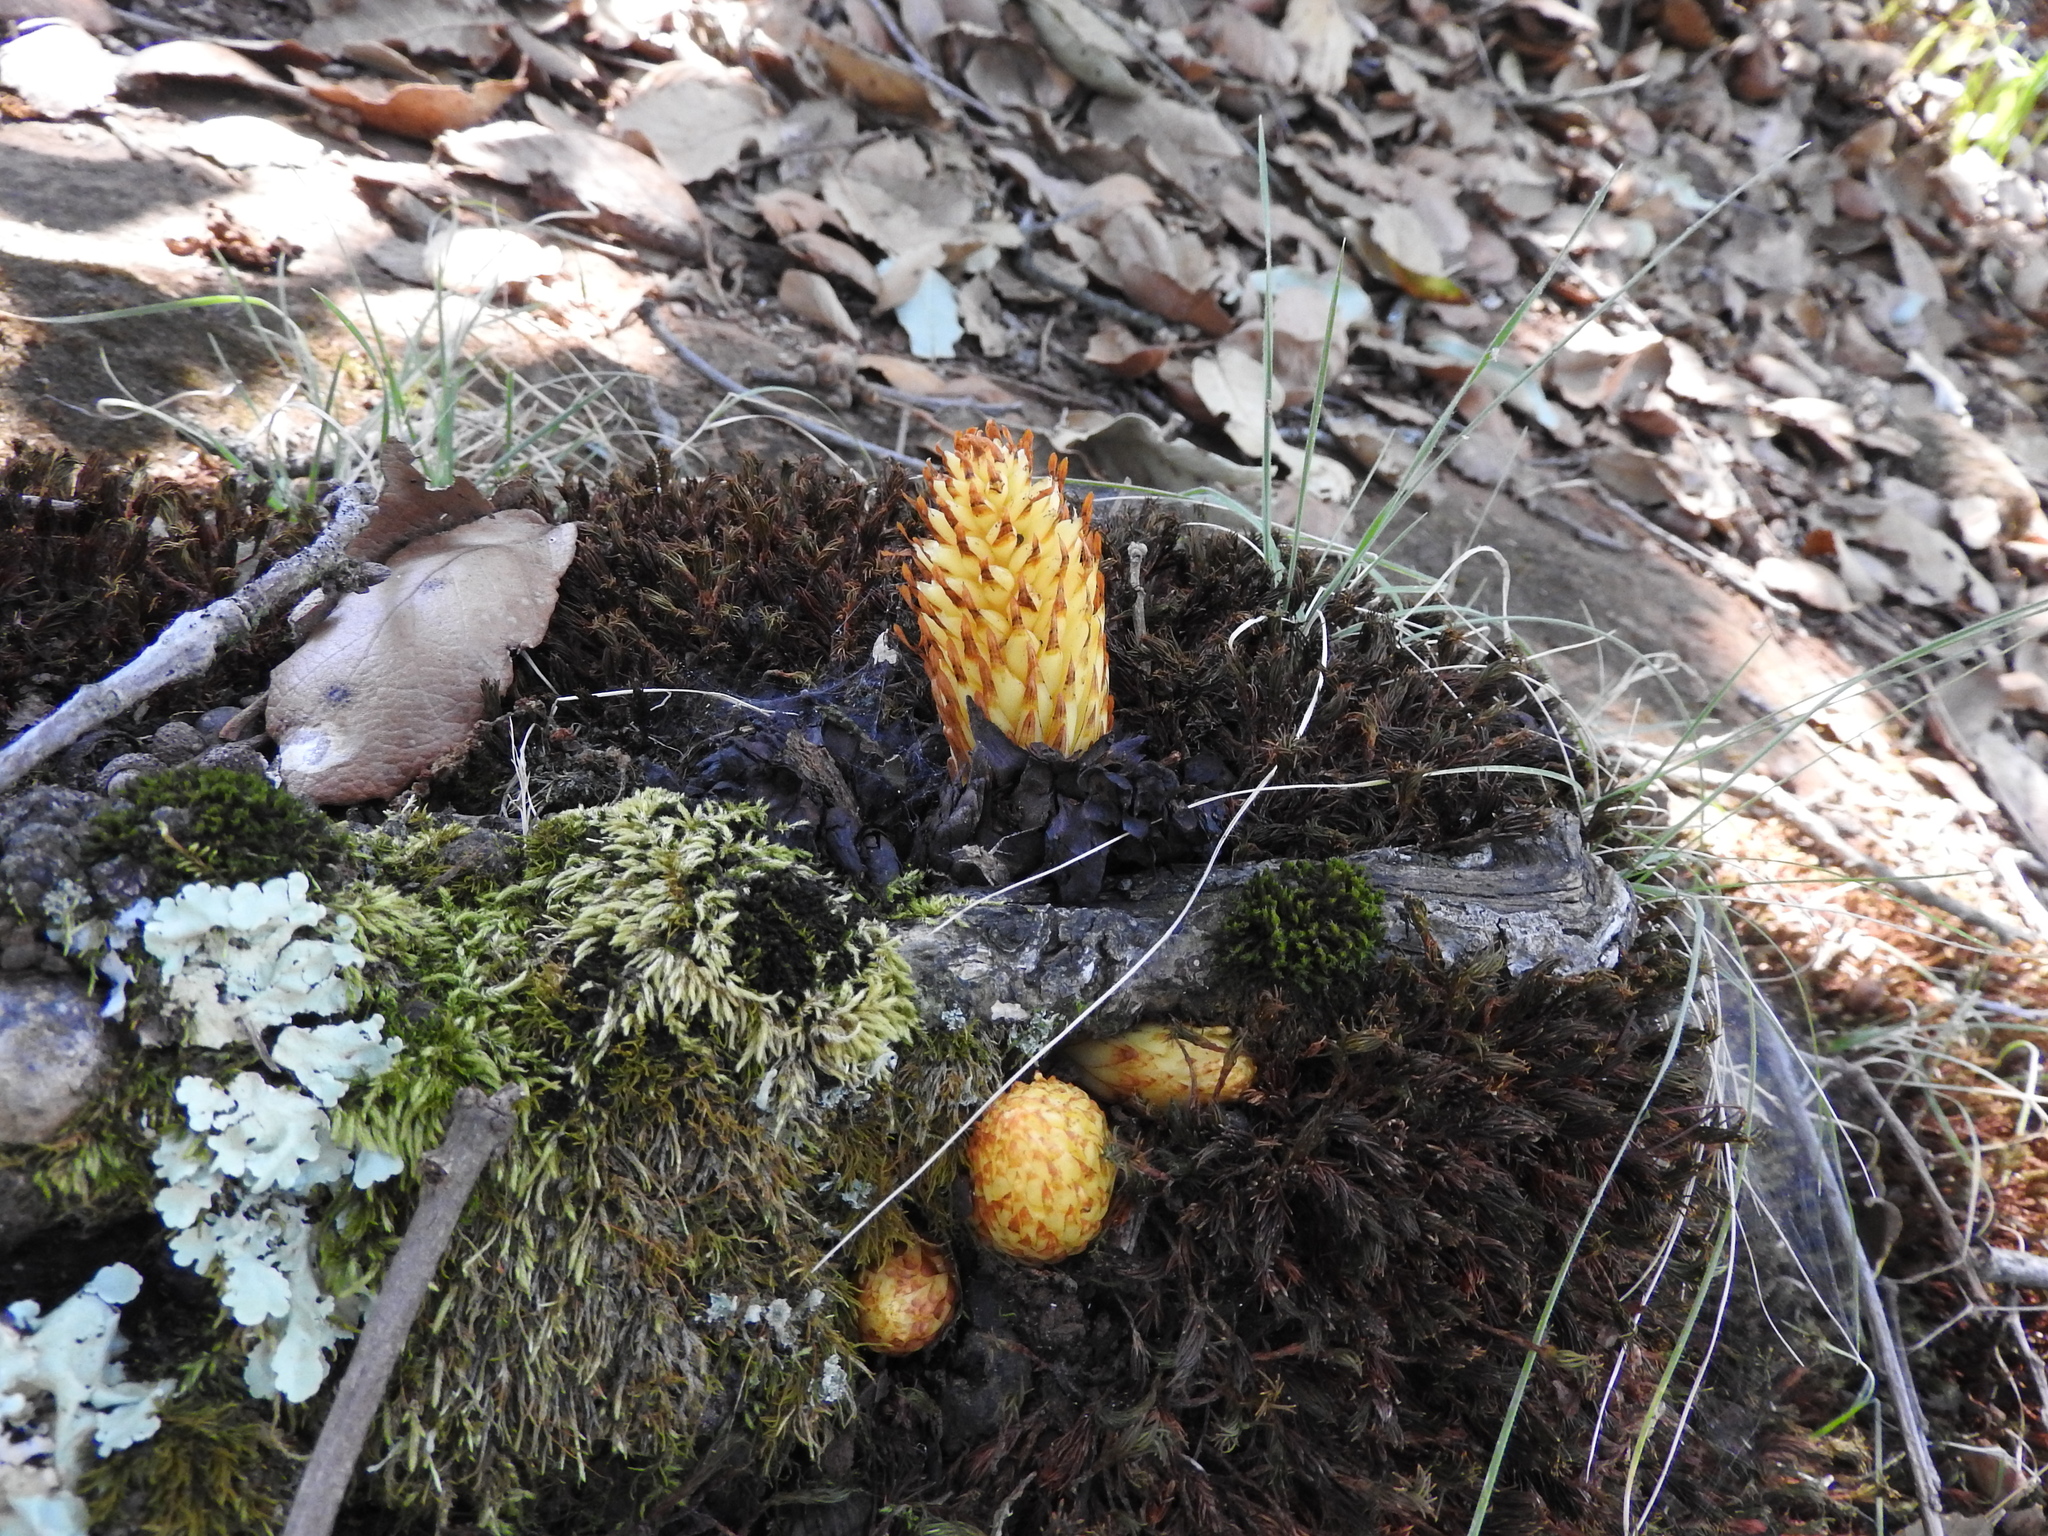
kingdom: Plantae
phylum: Tracheophyta
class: Magnoliopsida
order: Lamiales
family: Orobanchaceae
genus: Conopholis
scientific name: Conopholis alpina
